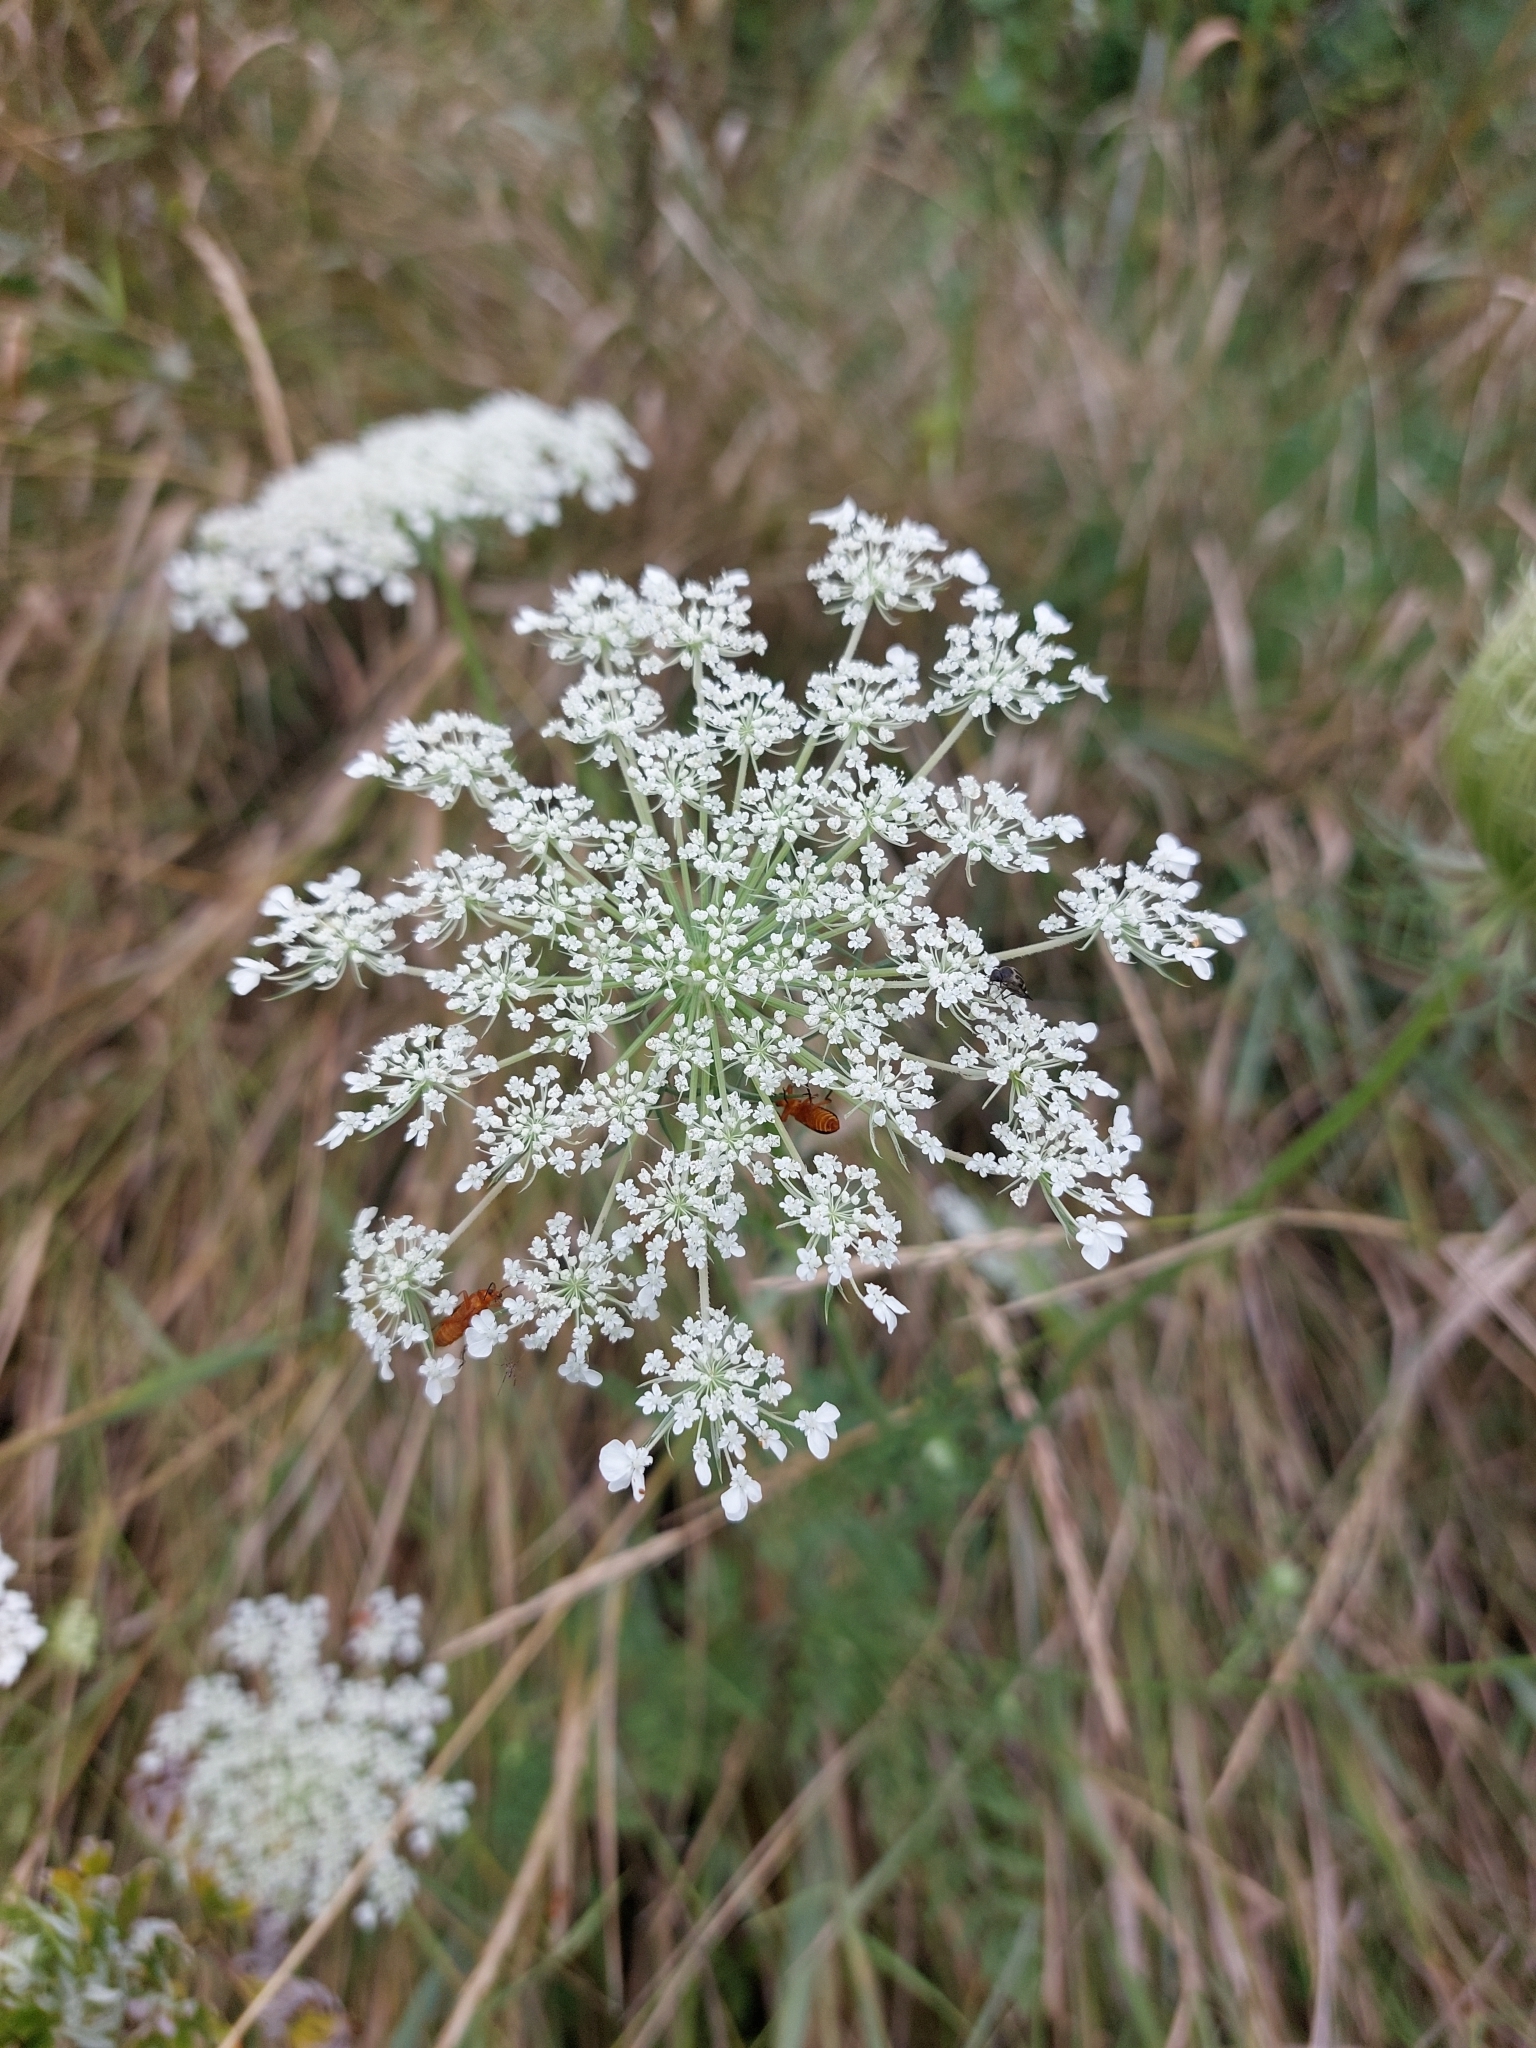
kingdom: Plantae
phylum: Tracheophyta
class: Magnoliopsida
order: Apiales
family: Apiaceae
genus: Daucus
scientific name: Daucus carota
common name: Wild carrot
